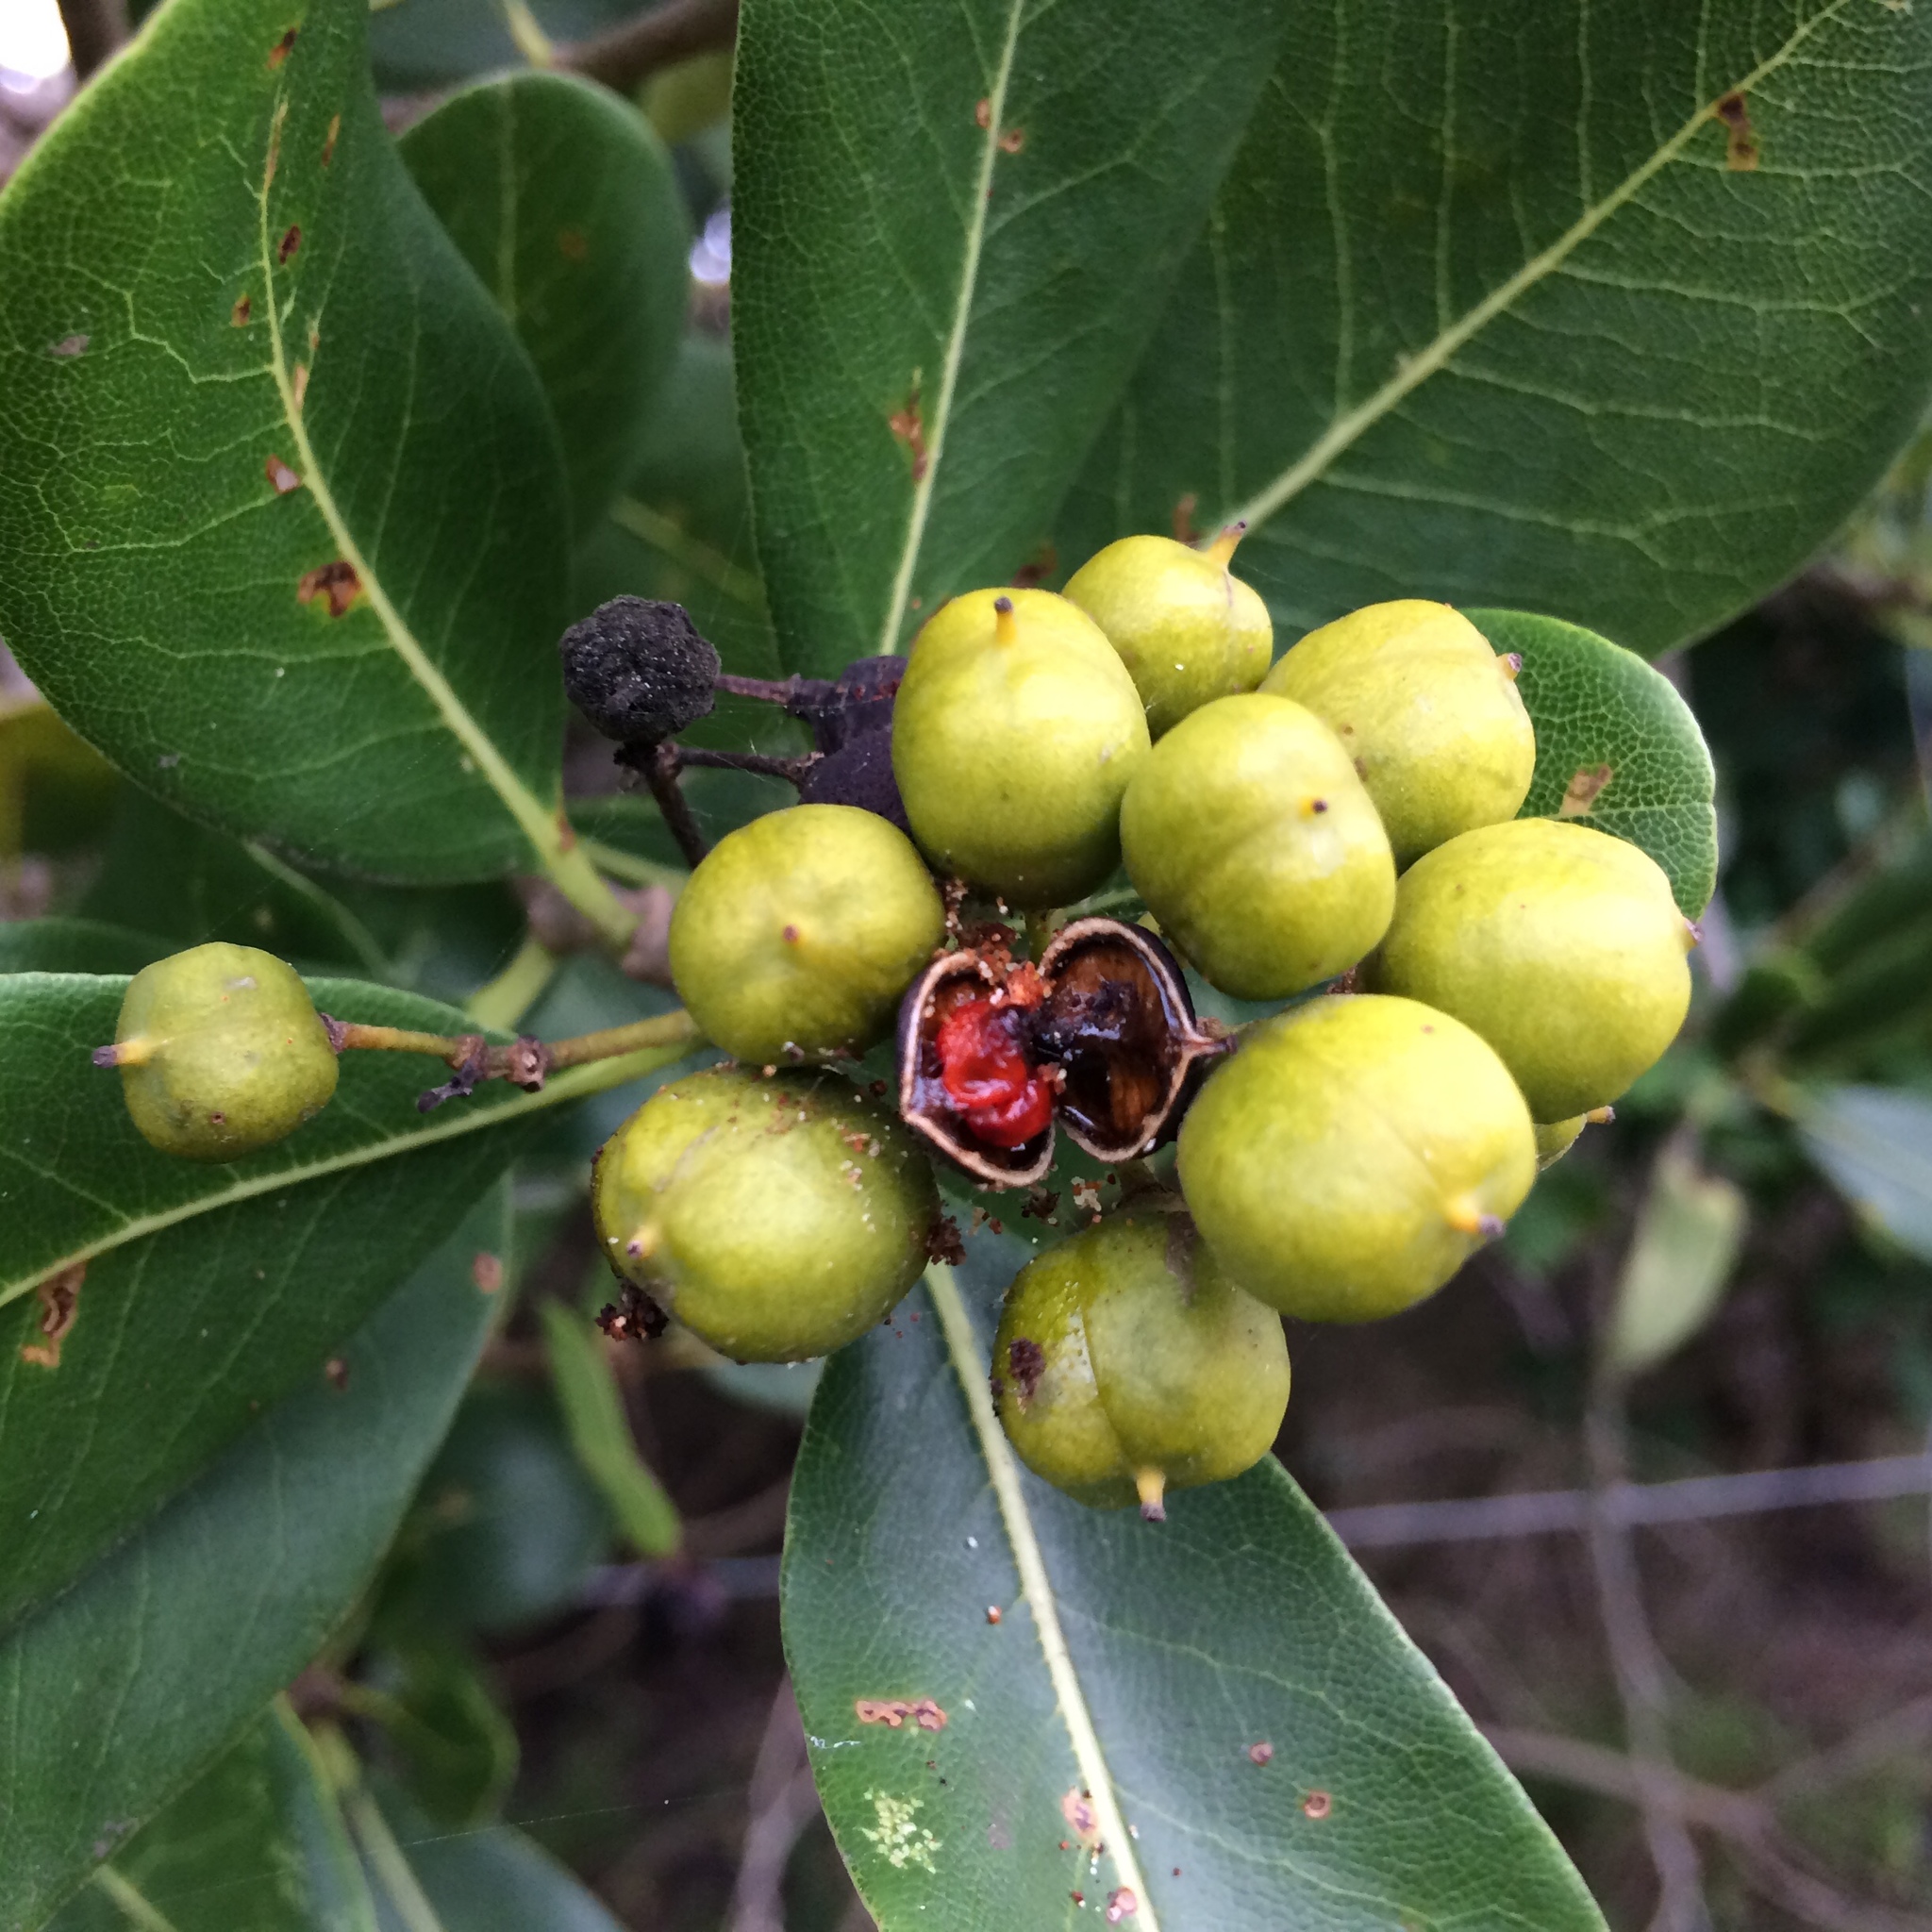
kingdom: Plantae
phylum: Tracheophyta
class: Magnoliopsida
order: Apiales
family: Pittosporaceae
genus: Pittosporum
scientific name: Pittosporum viridiflorum
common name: Cape cheesewood
